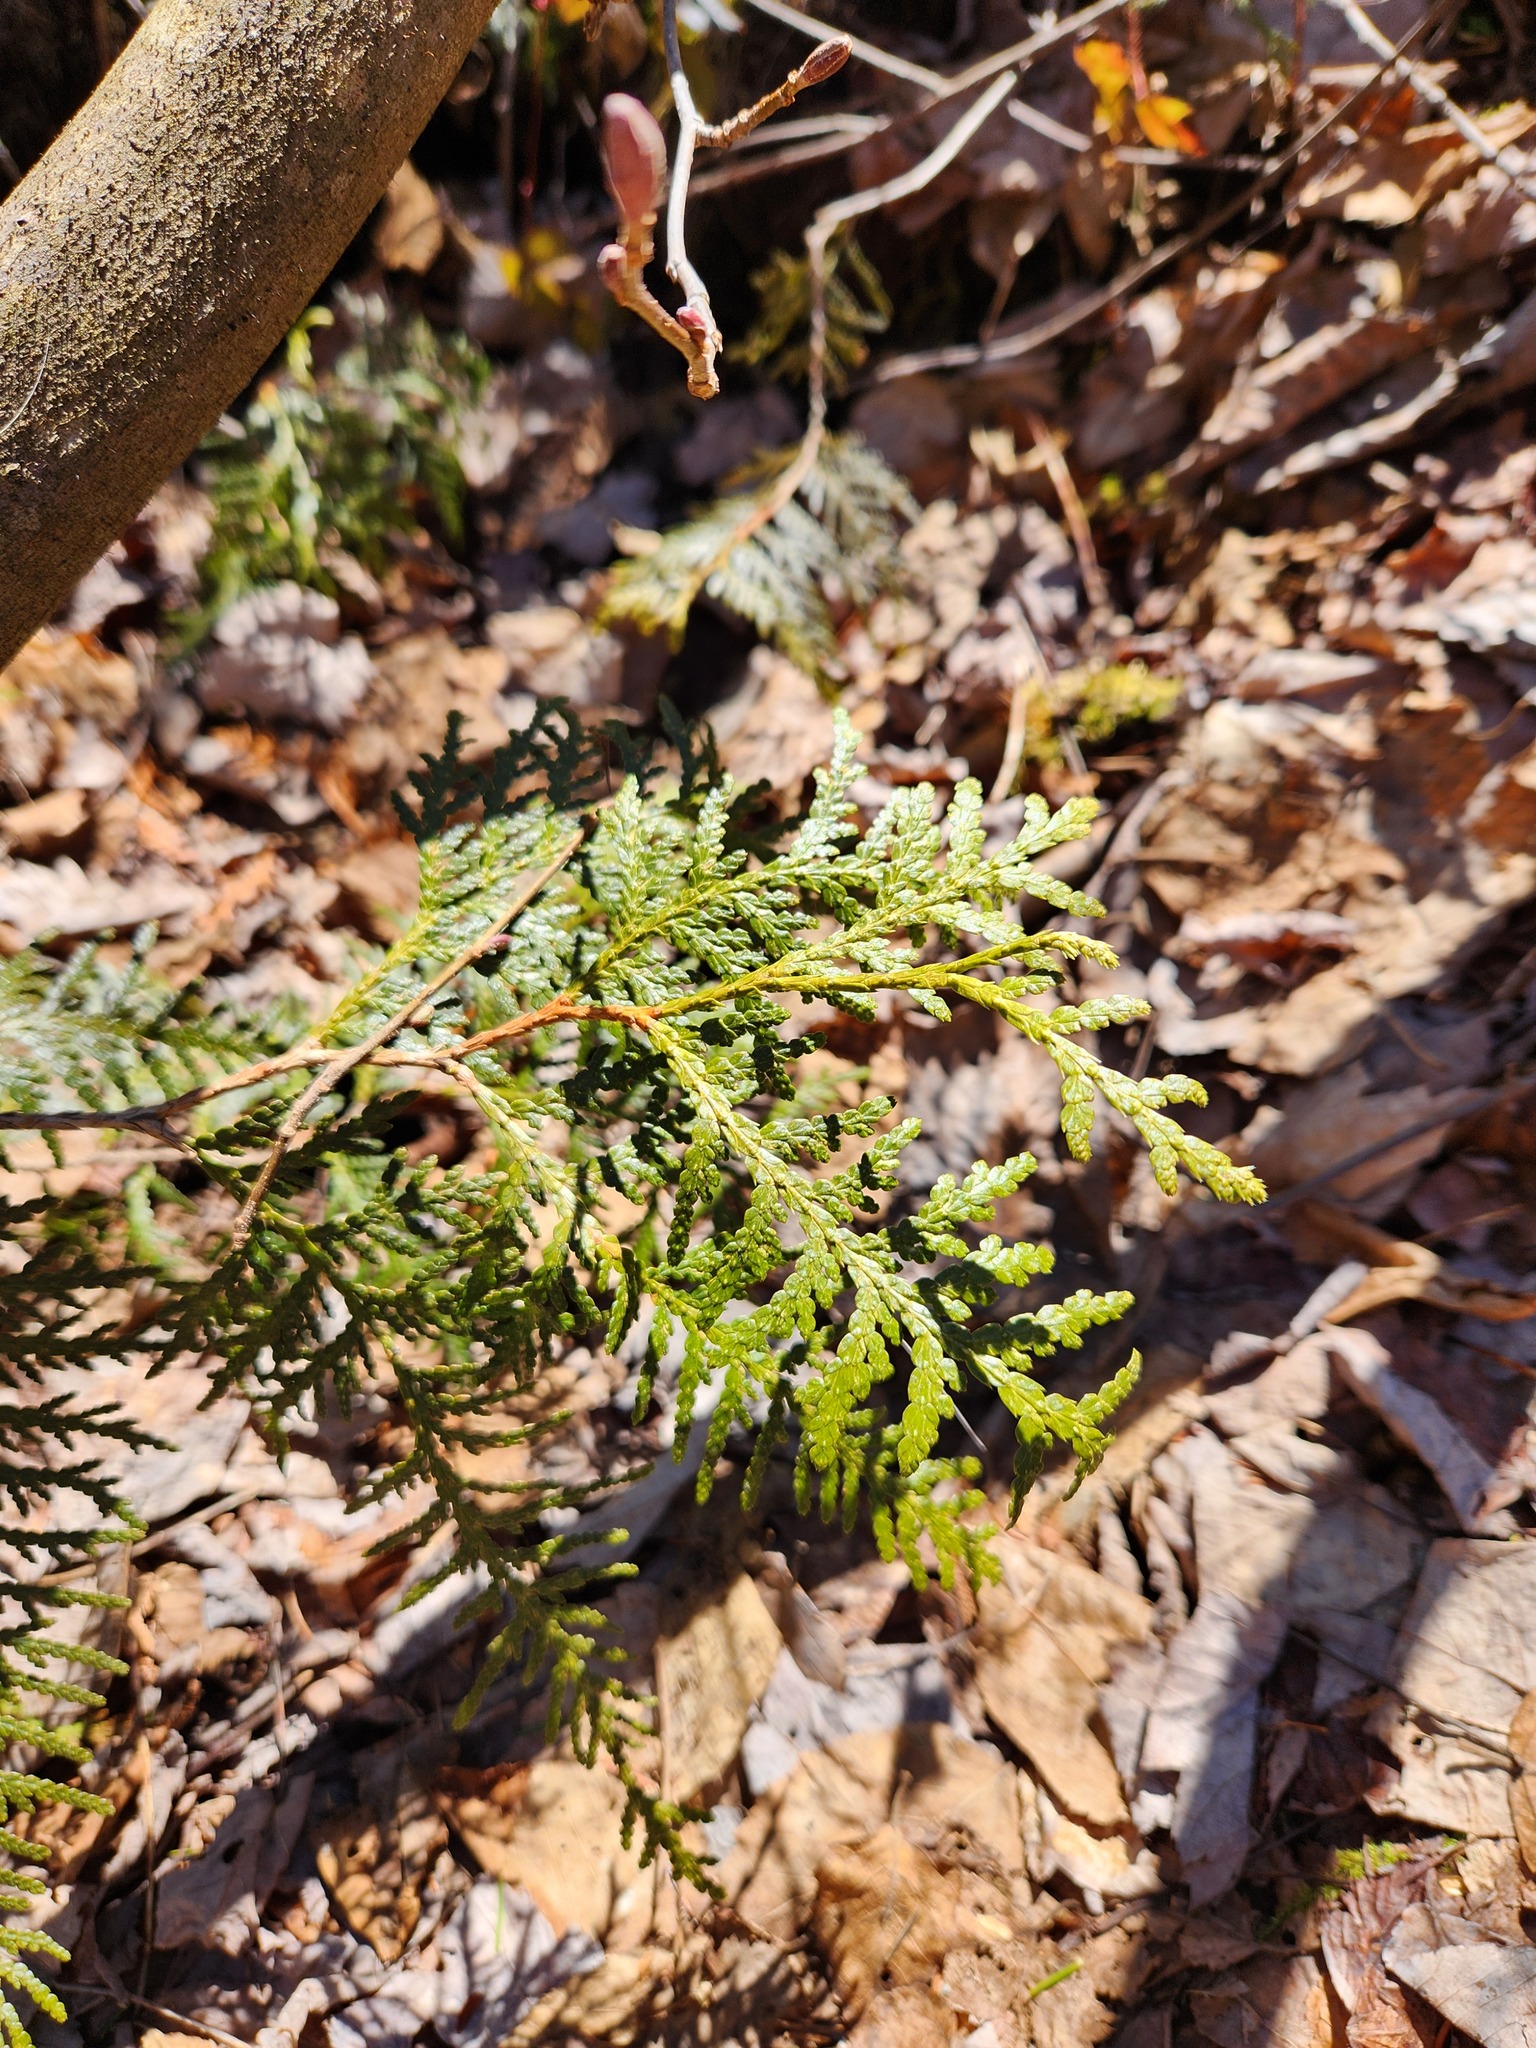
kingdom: Plantae
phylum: Tracheophyta
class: Pinopsida
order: Pinales
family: Cupressaceae
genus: Thuja
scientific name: Thuja occidentalis
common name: Northern white-cedar
